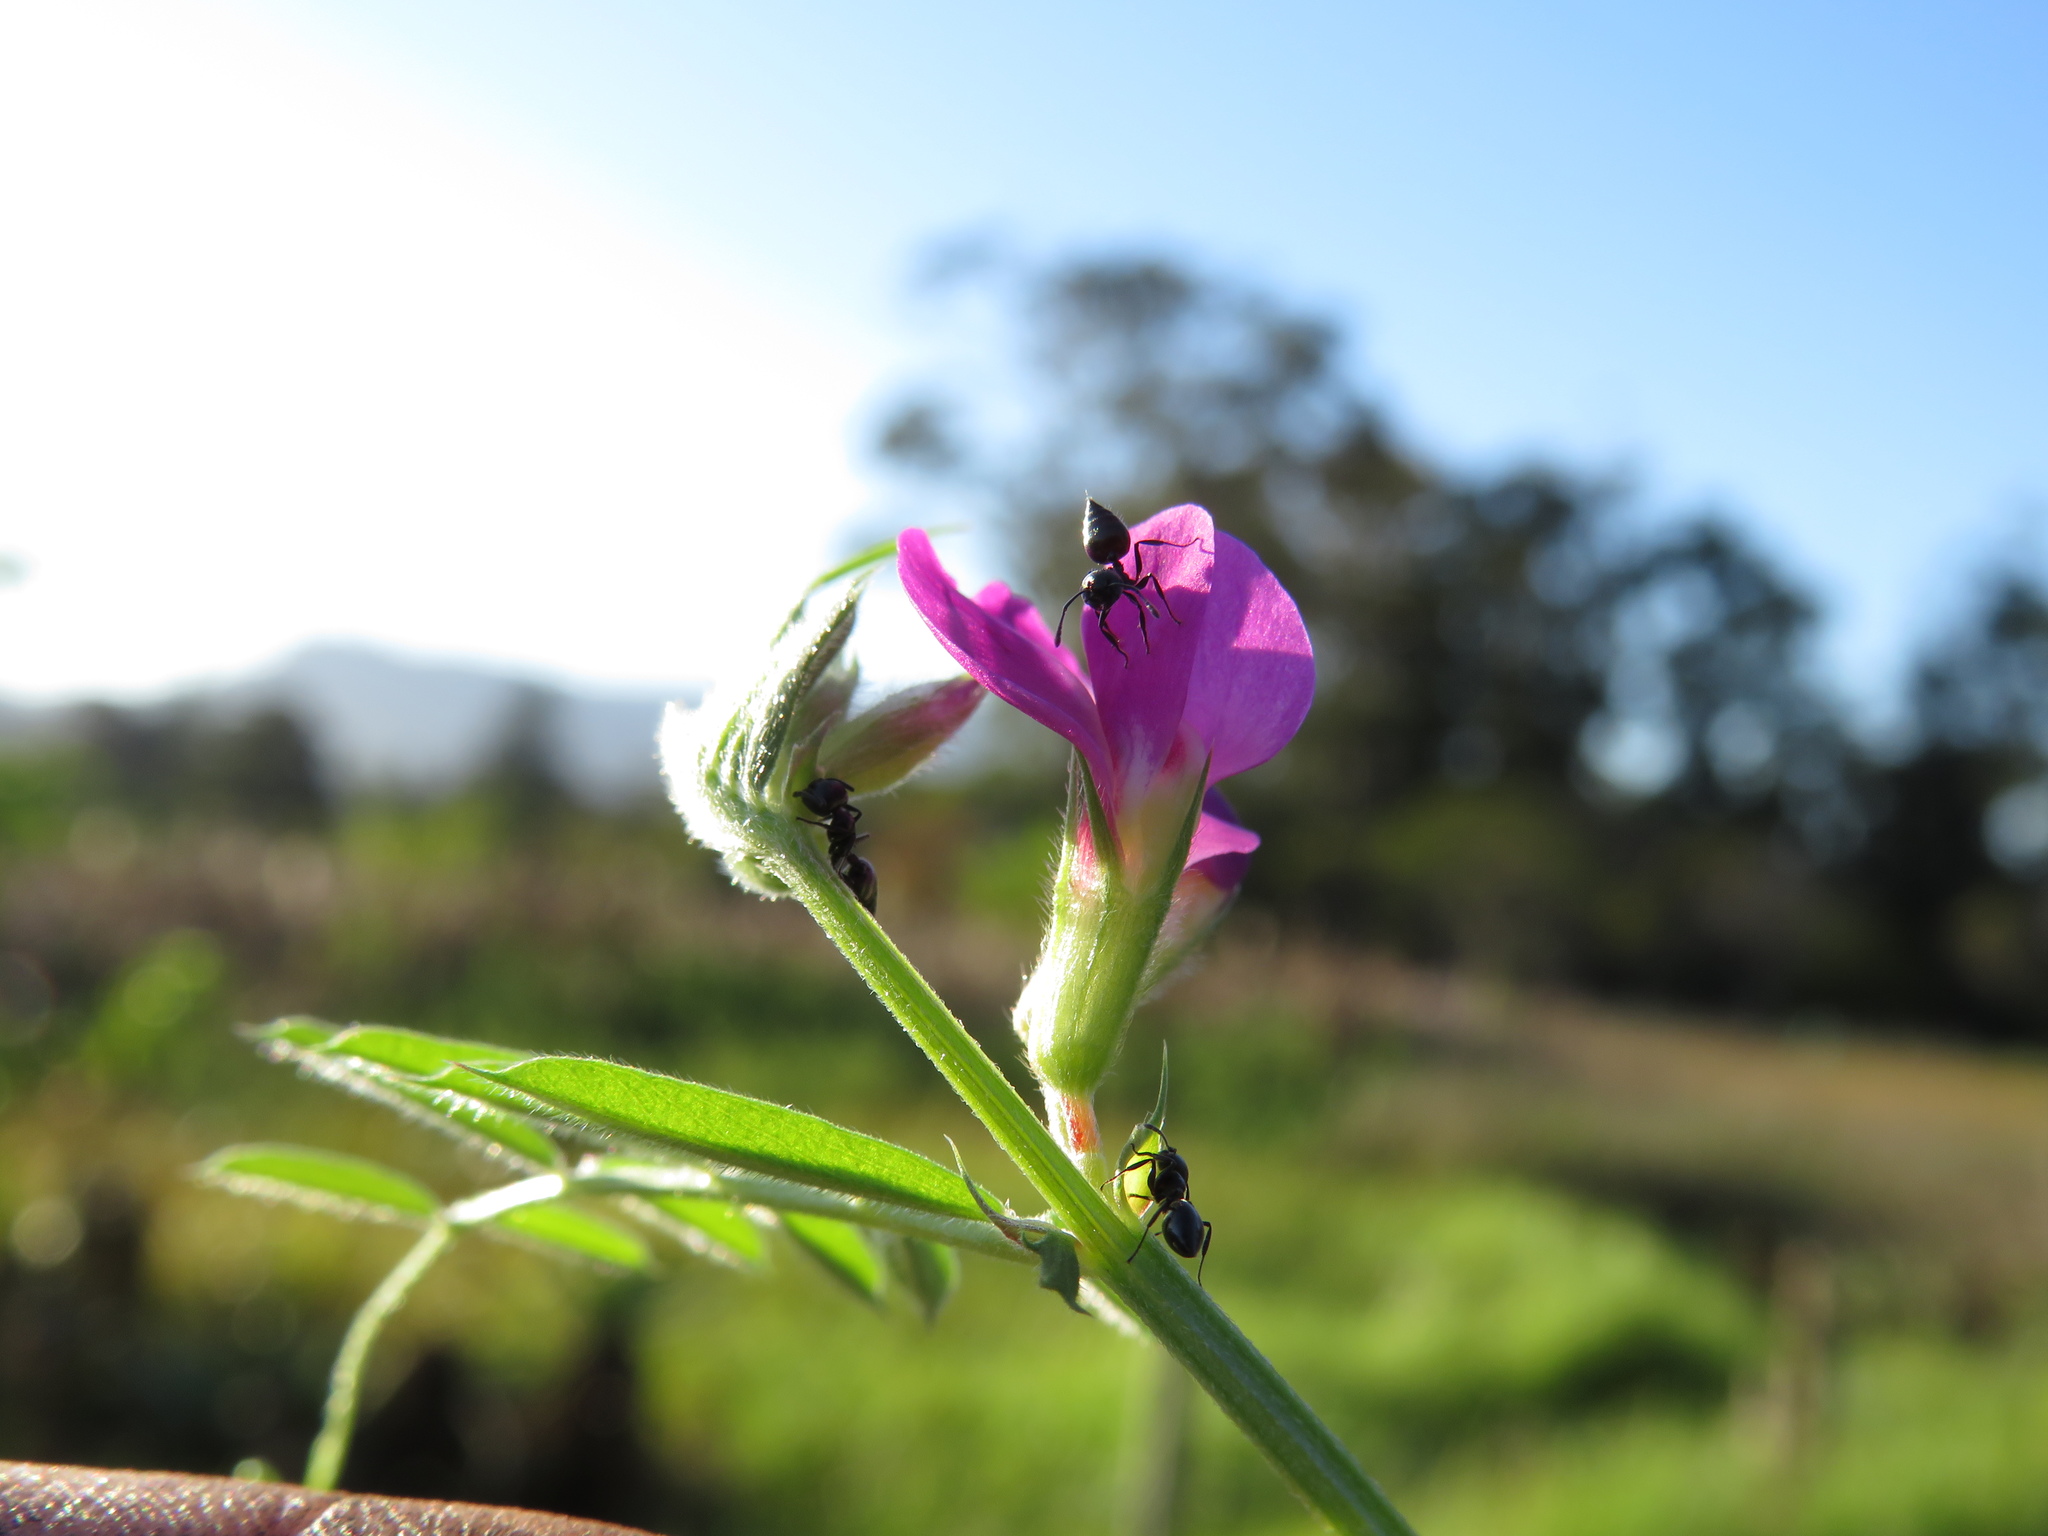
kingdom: Animalia
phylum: Arthropoda
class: Insecta
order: Hymenoptera
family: Formicidae
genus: Crematogaster
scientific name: Crematogaster peringueyi
